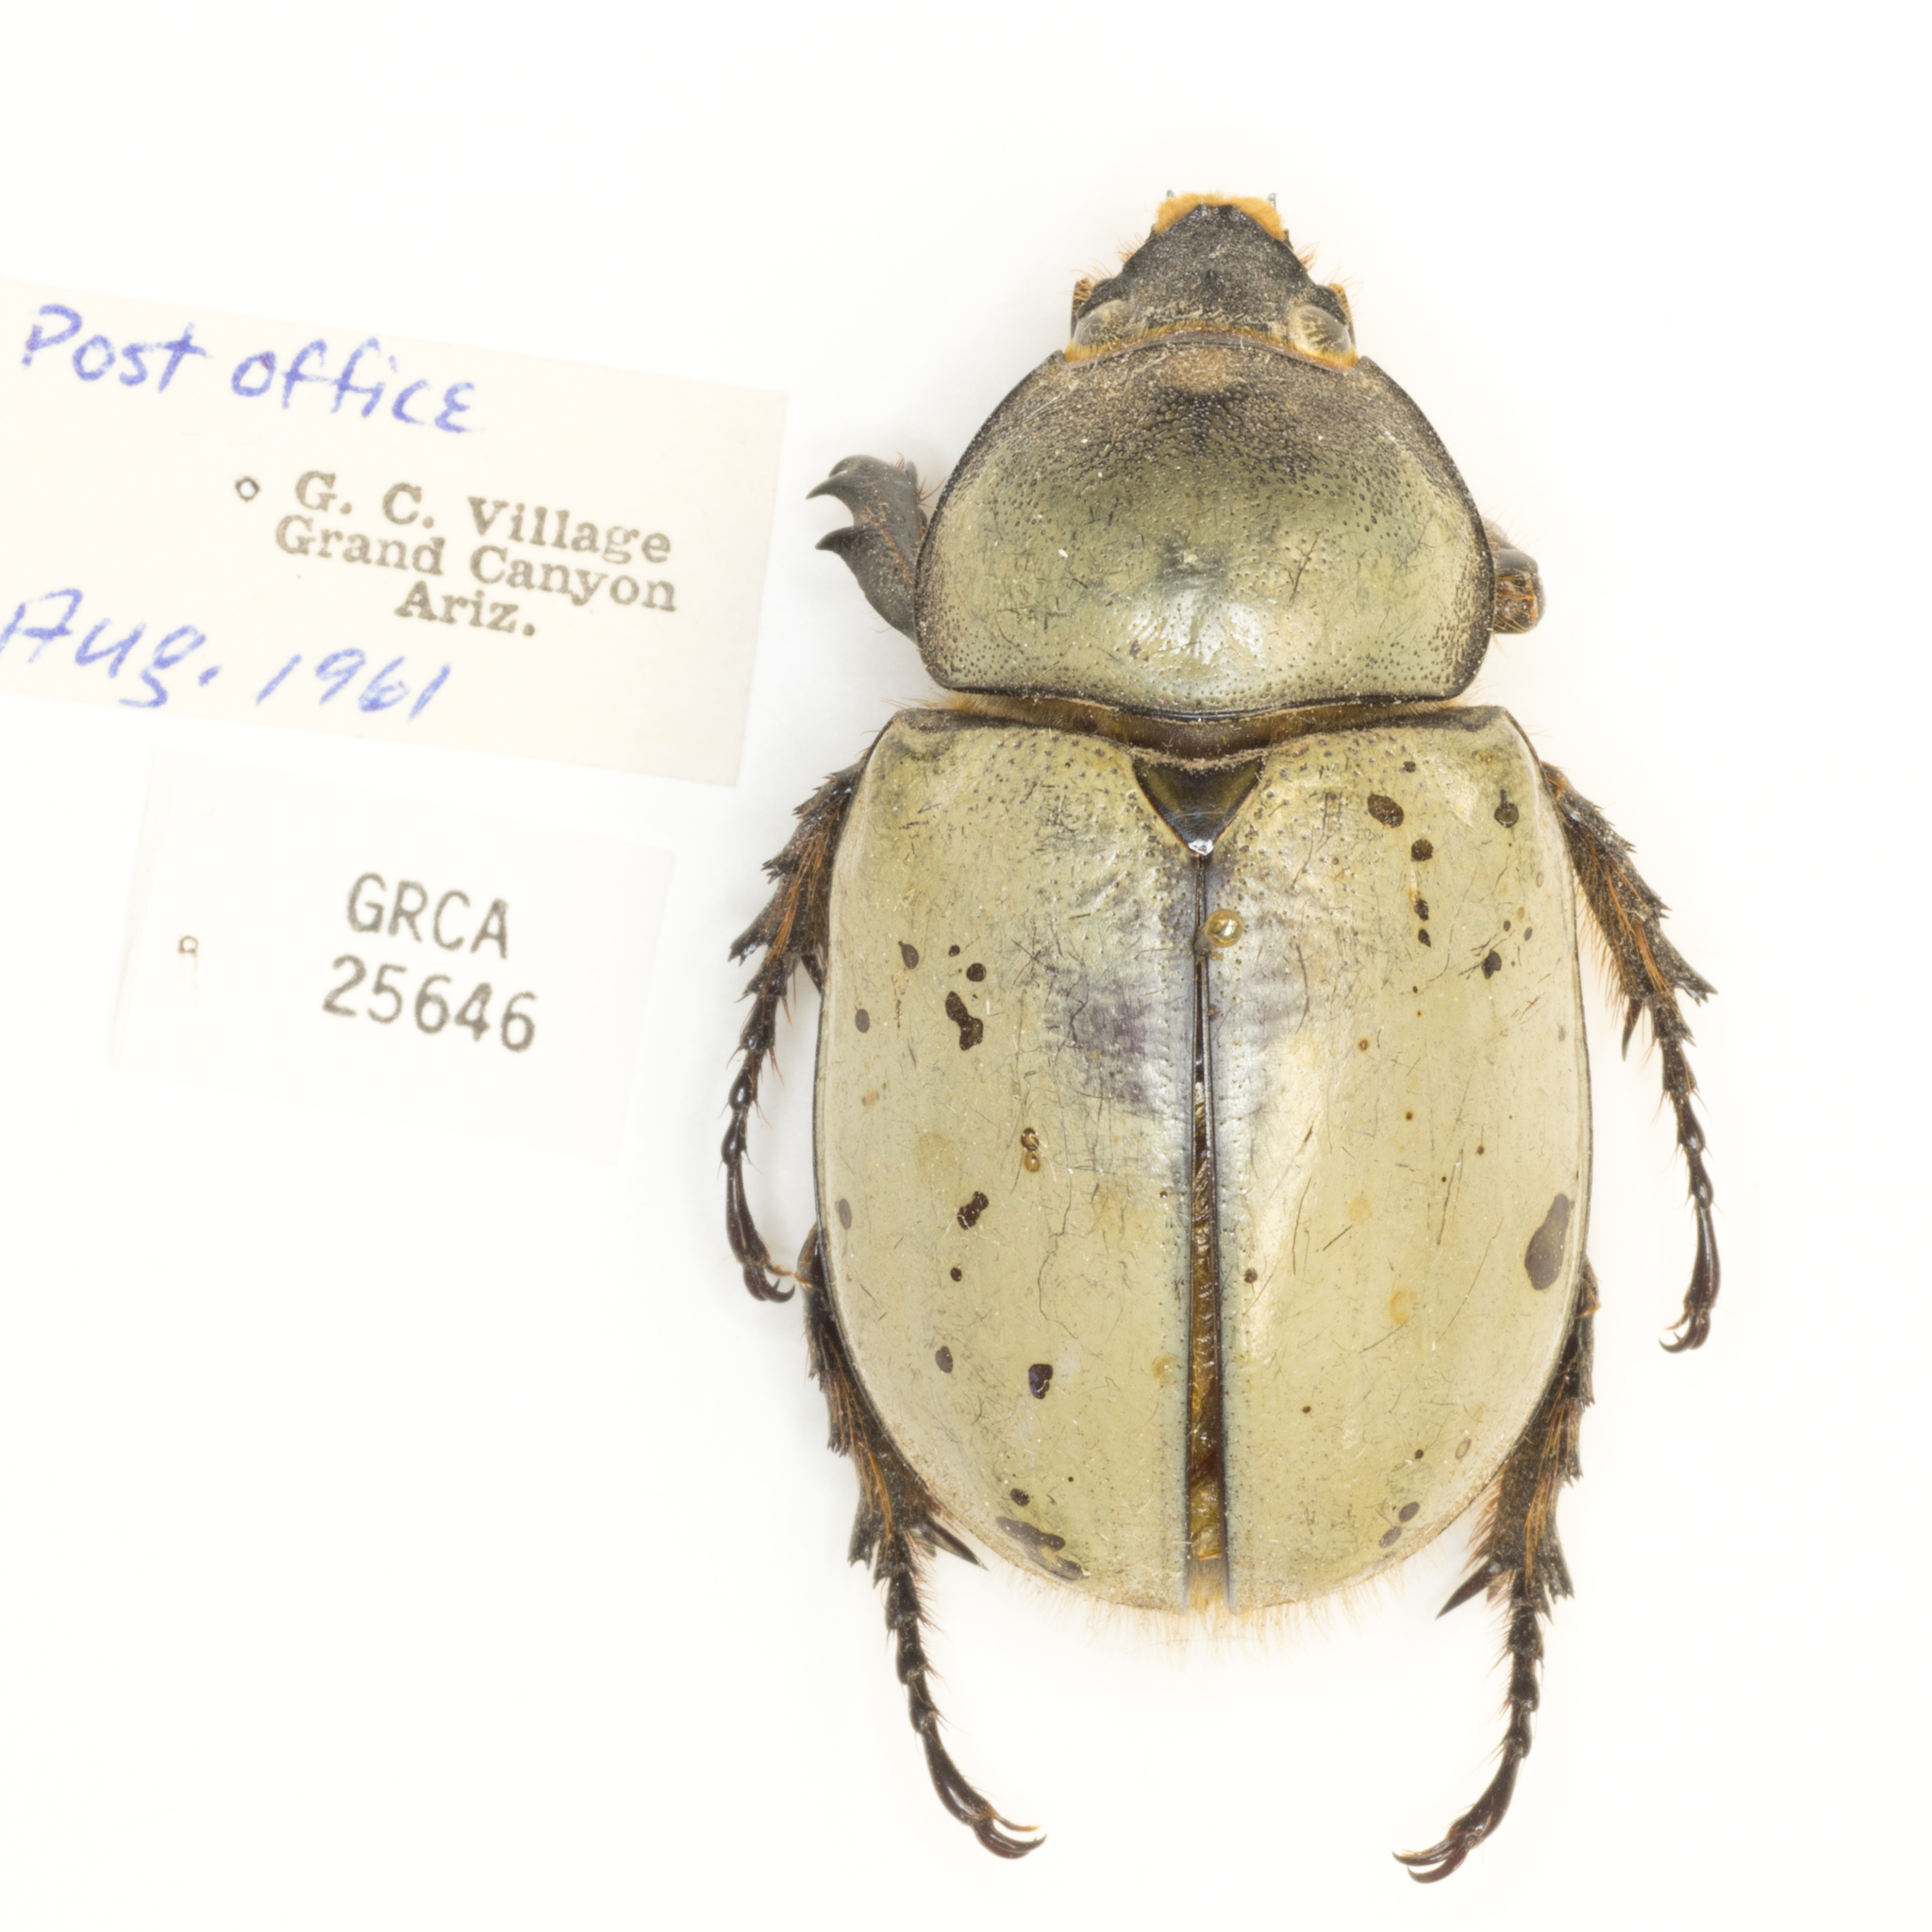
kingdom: Animalia
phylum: Arthropoda
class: Insecta
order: Coleoptera
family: Scarabaeidae
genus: Dynastes
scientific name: Dynastes grantii
